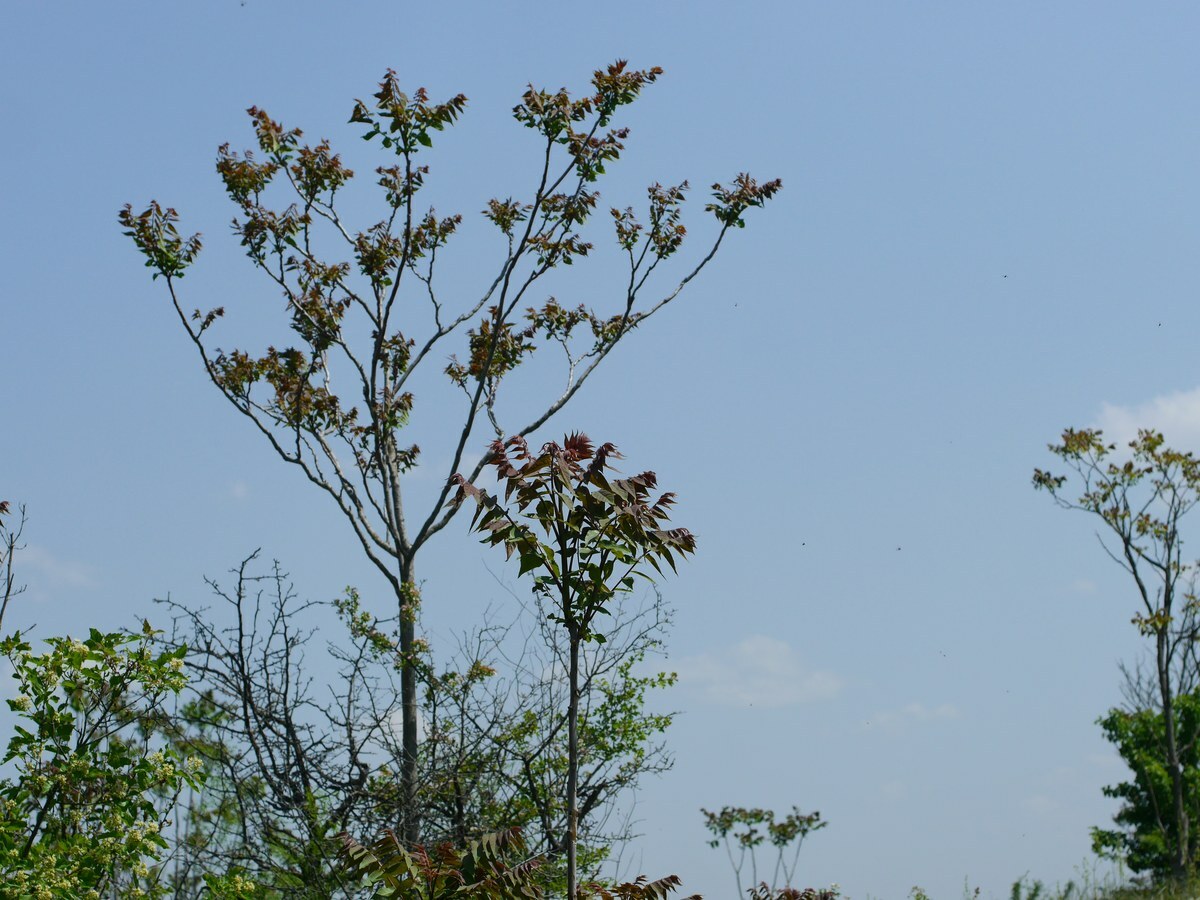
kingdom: Plantae
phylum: Tracheophyta
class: Magnoliopsida
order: Sapindales
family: Simaroubaceae
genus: Ailanthus
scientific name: Ailanthus altissima
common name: Tree-of-heaven
